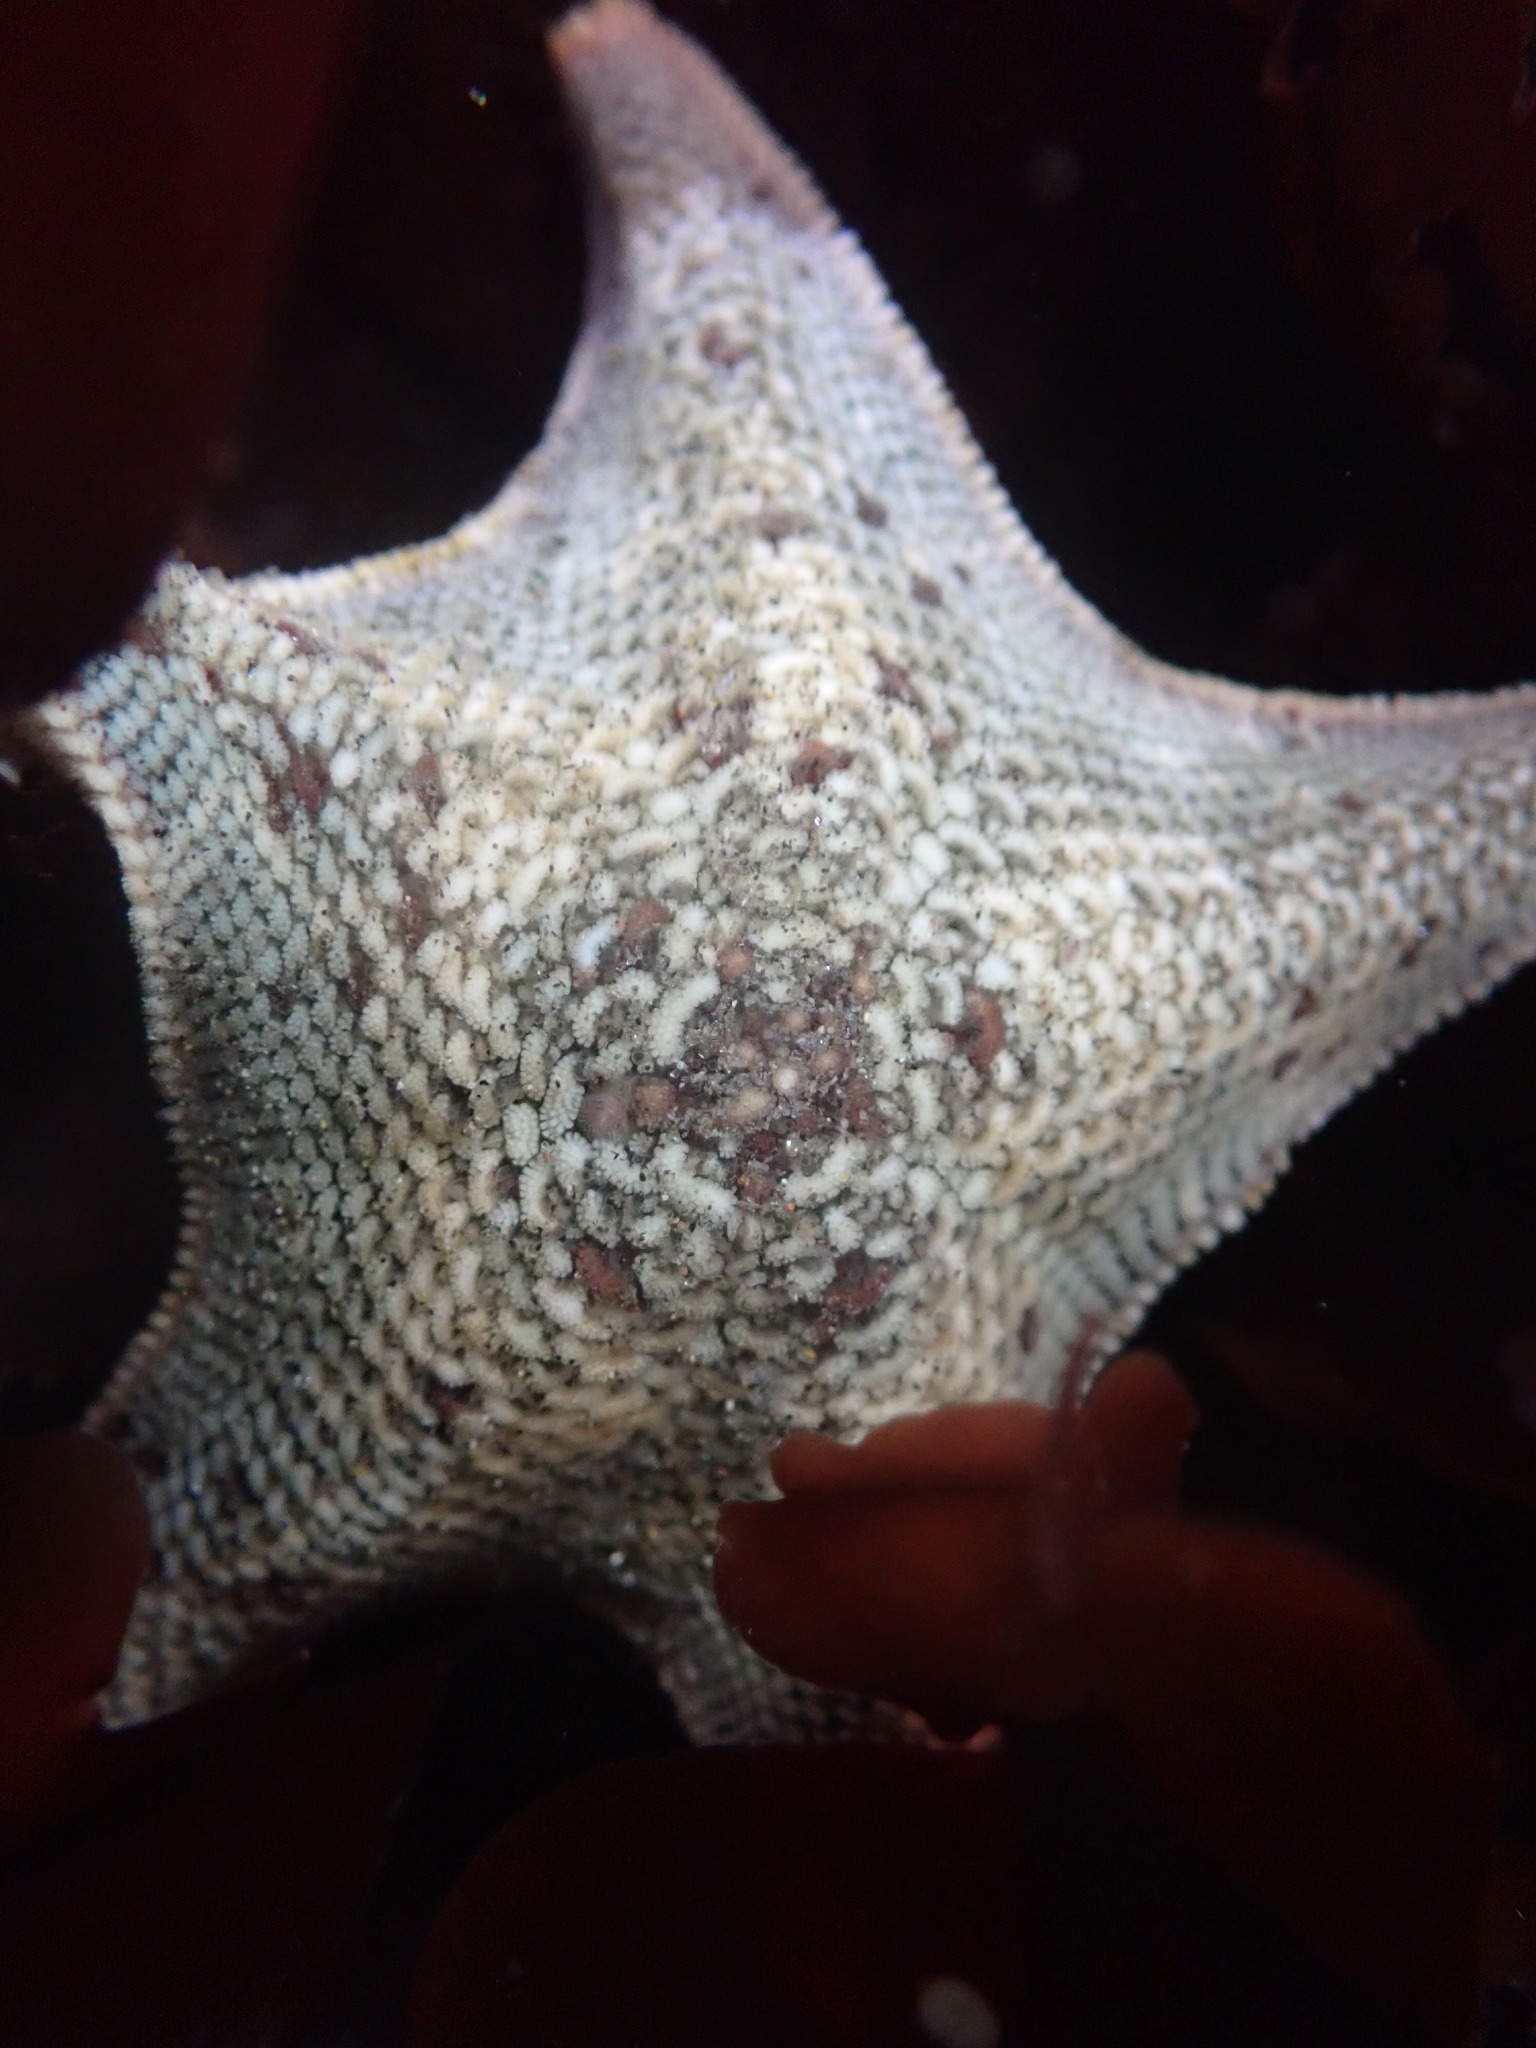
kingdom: Animalia
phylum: Echinodermata
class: Asteroidea
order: Valvatida
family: Asterinidae
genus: Patiria
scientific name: Patiria miniata
